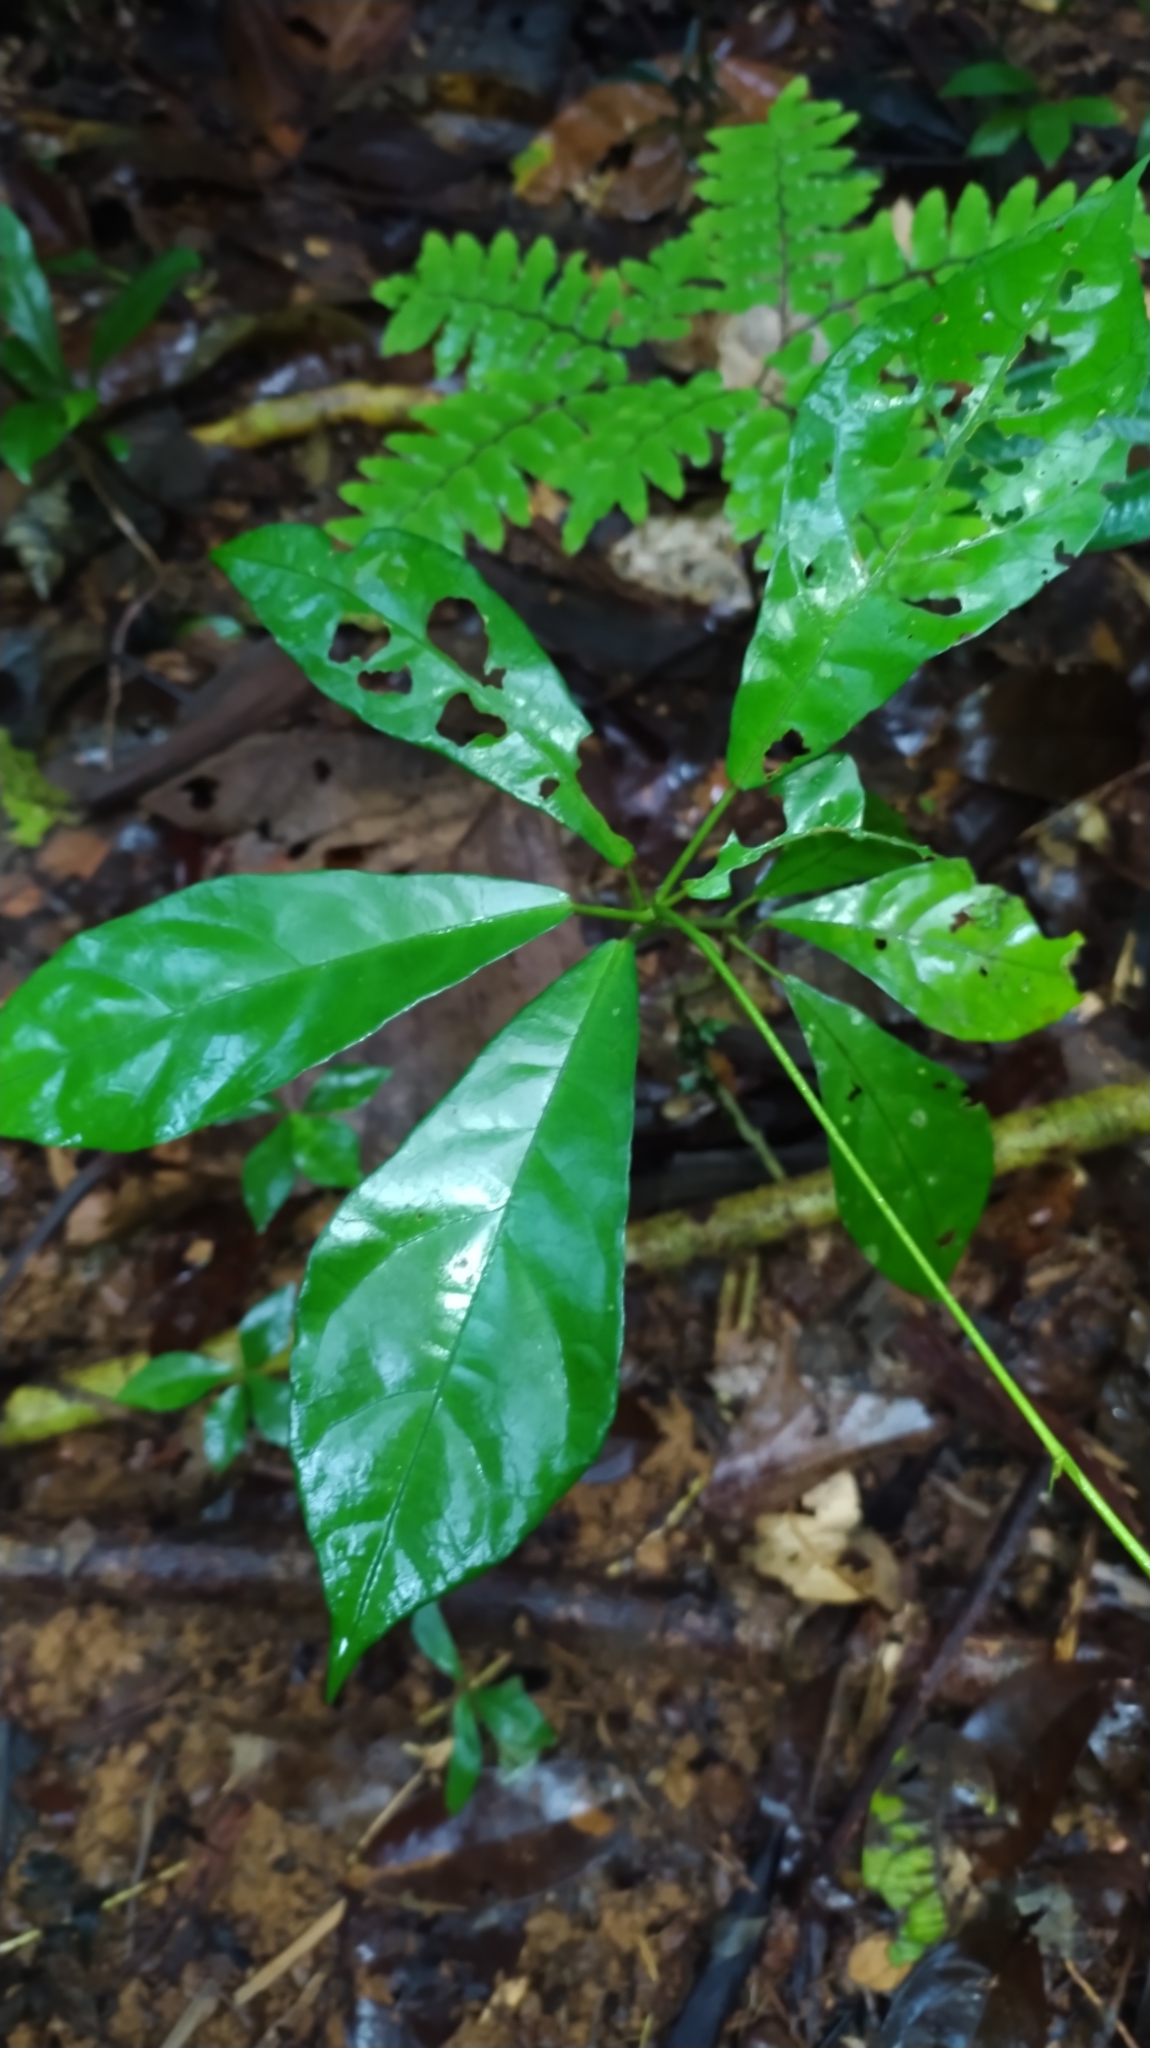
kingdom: Plantae
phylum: Tracheophyta
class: Magnoliopsida
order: Malvales
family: Malvaceae
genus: Pavonia
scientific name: Pavonia castaneifolia
